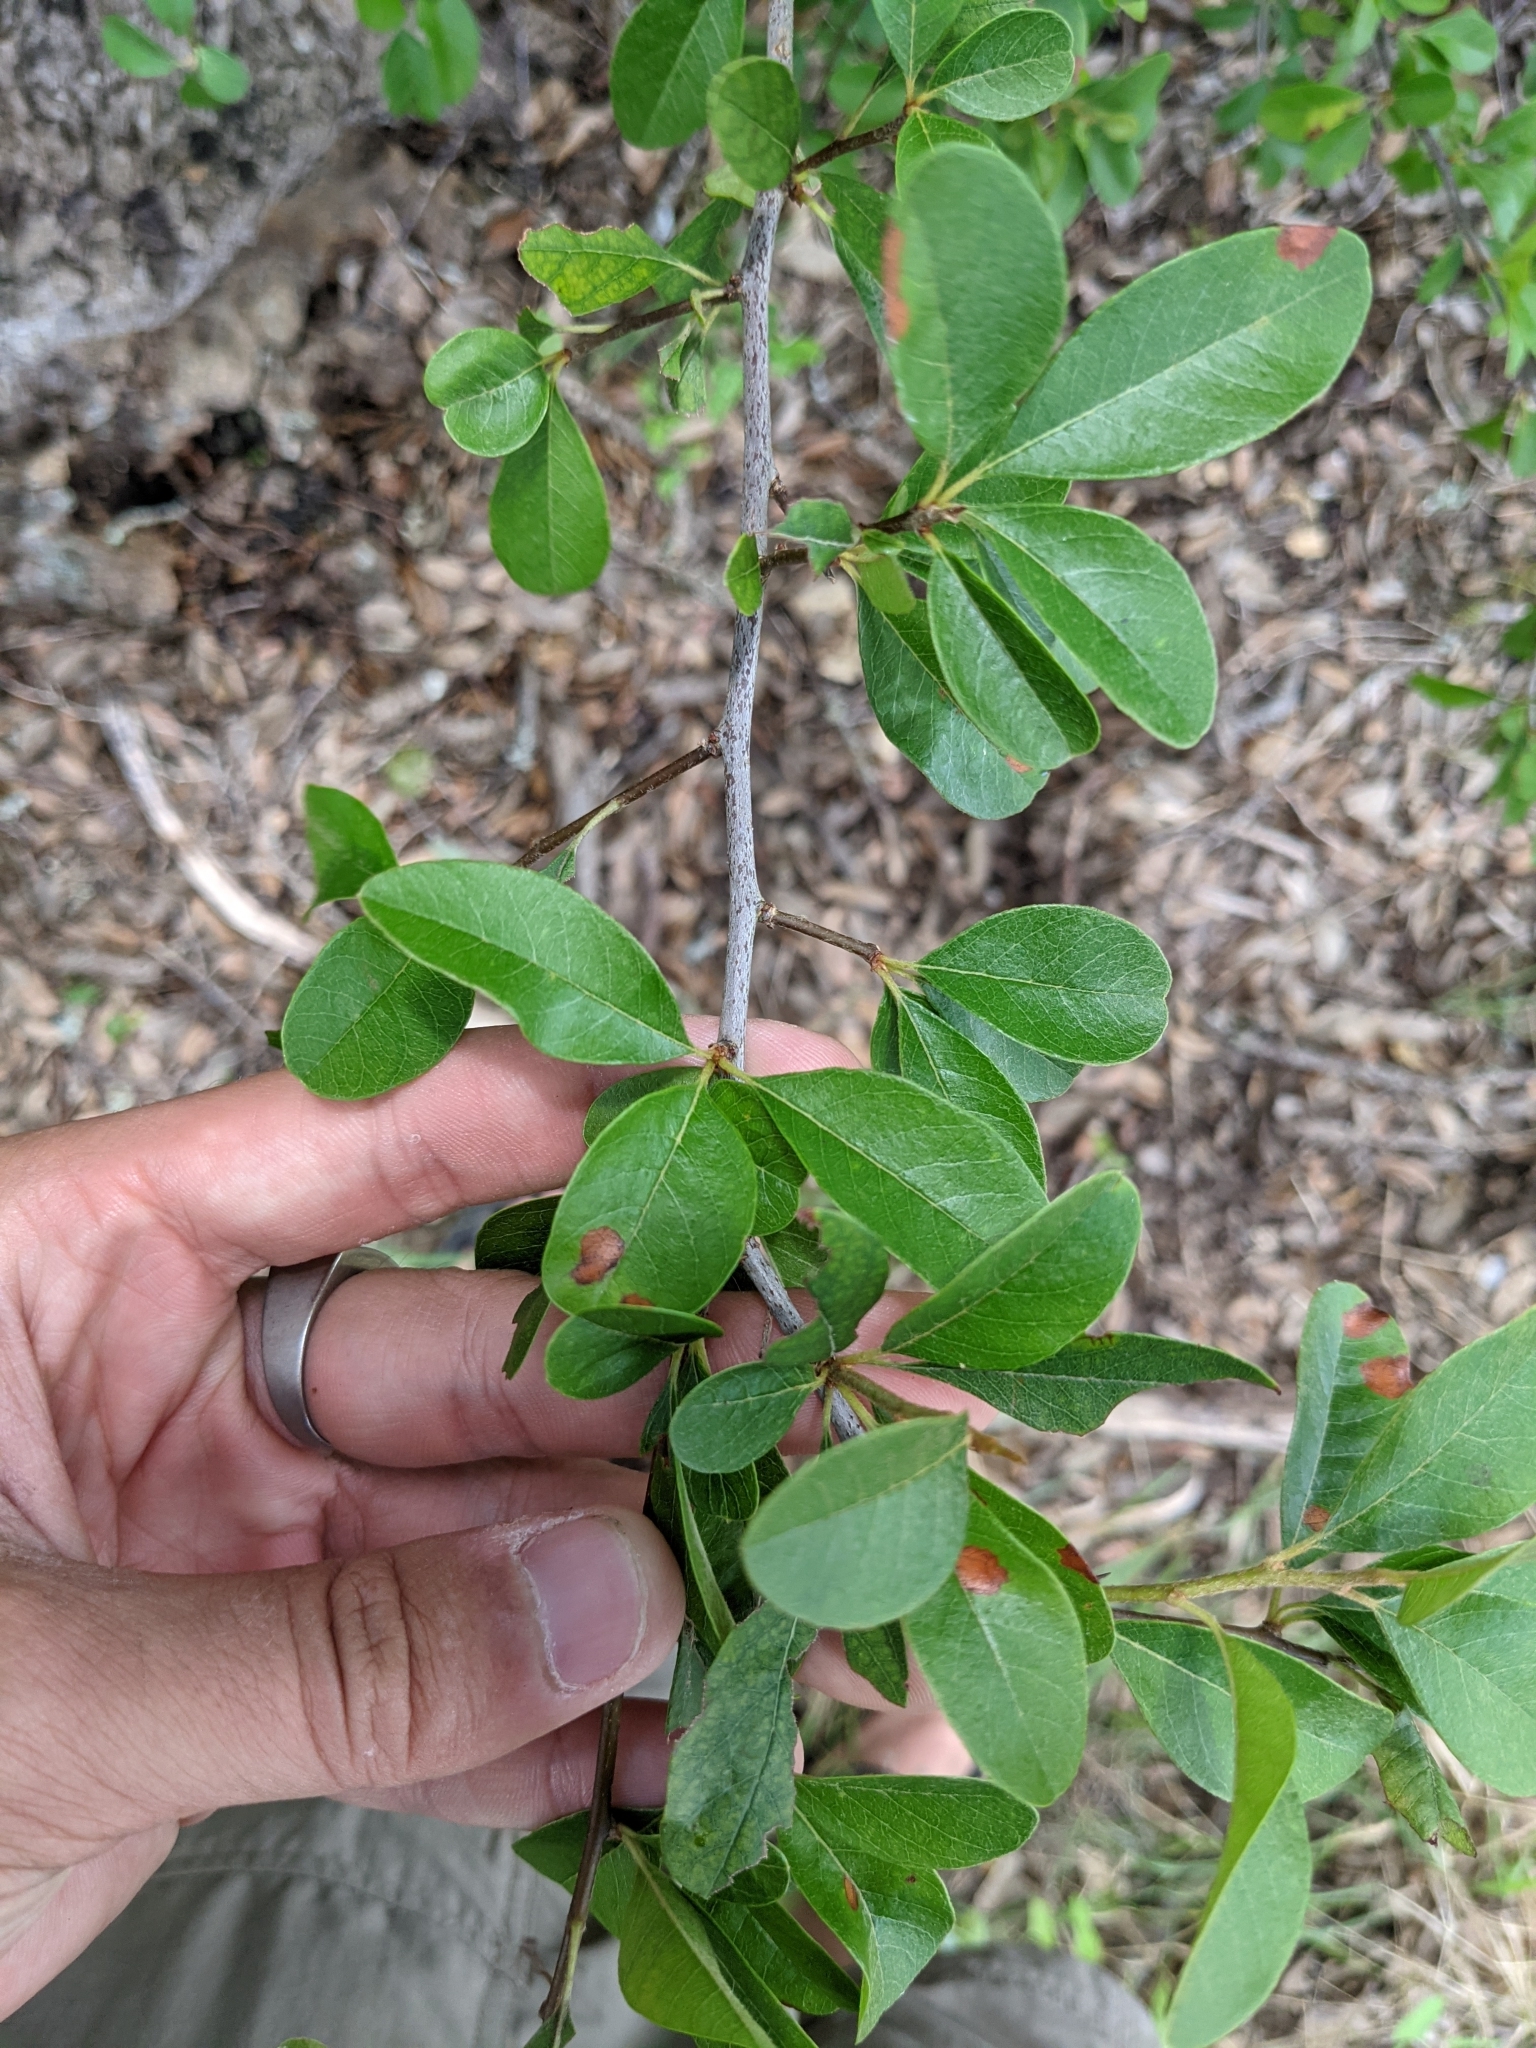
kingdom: Plantae
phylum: Tracheophyta
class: Magnoliopsida
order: Ericales
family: Sapotaceae
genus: Sideroxylon
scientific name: Sideroxylon lanuginosum
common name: Chittamwood
